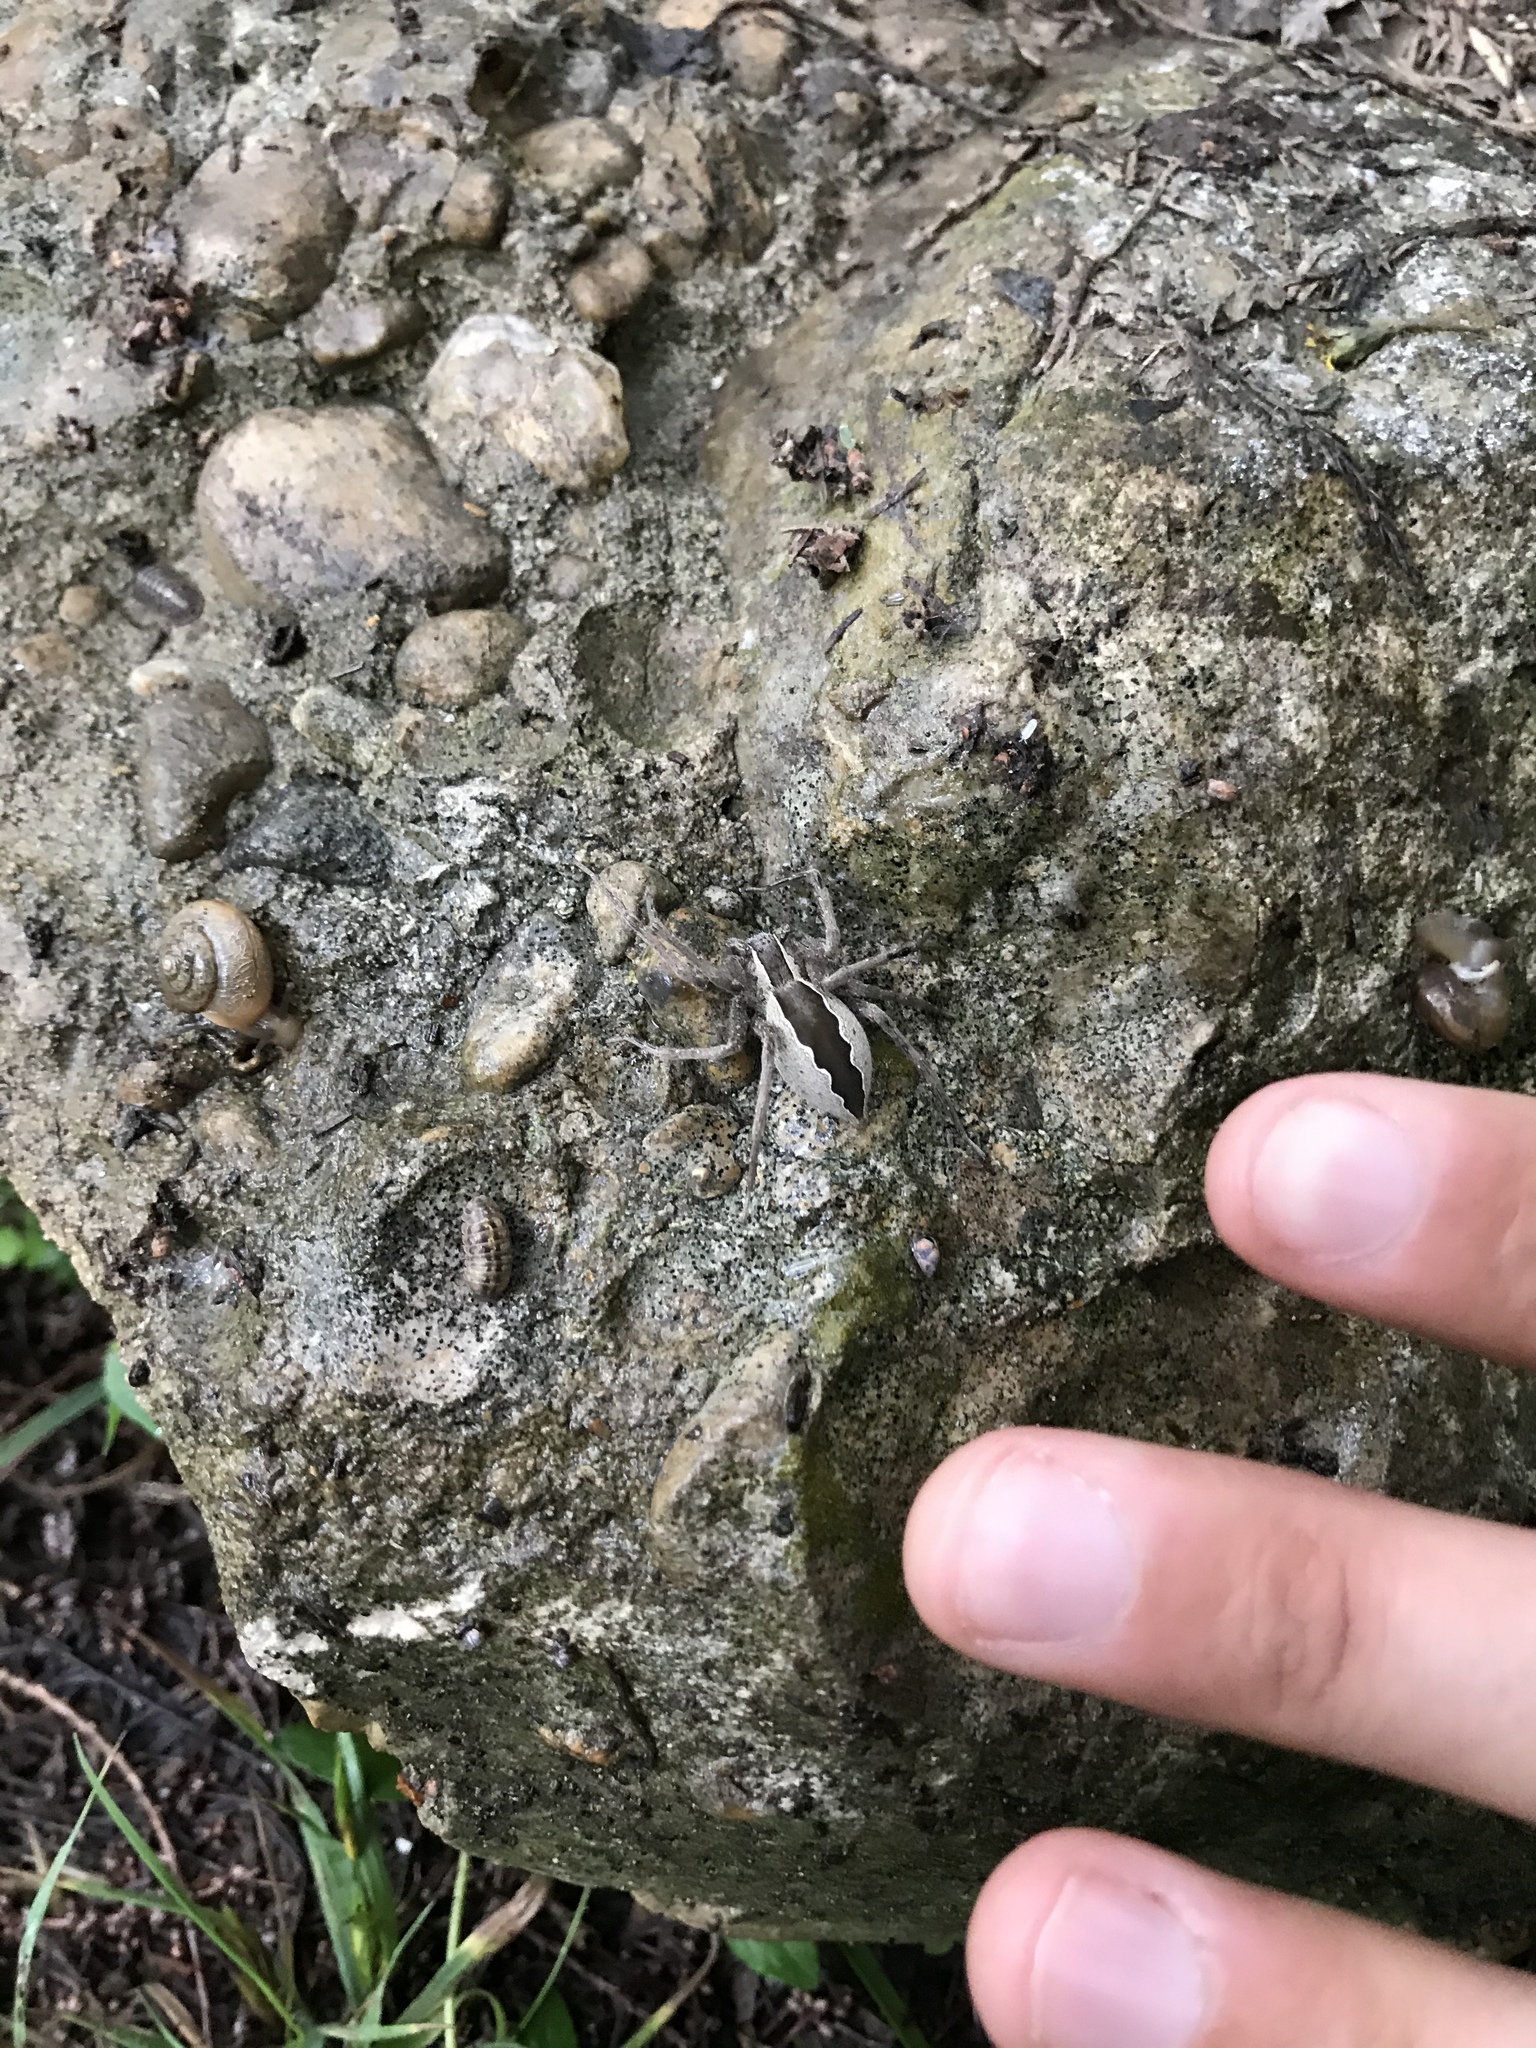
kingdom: Animalia
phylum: Arthropoda
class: Arachnida
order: Araneae
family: Pisauridae
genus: Pisaurina
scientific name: Pisaurina mira
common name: American nursery web spider
